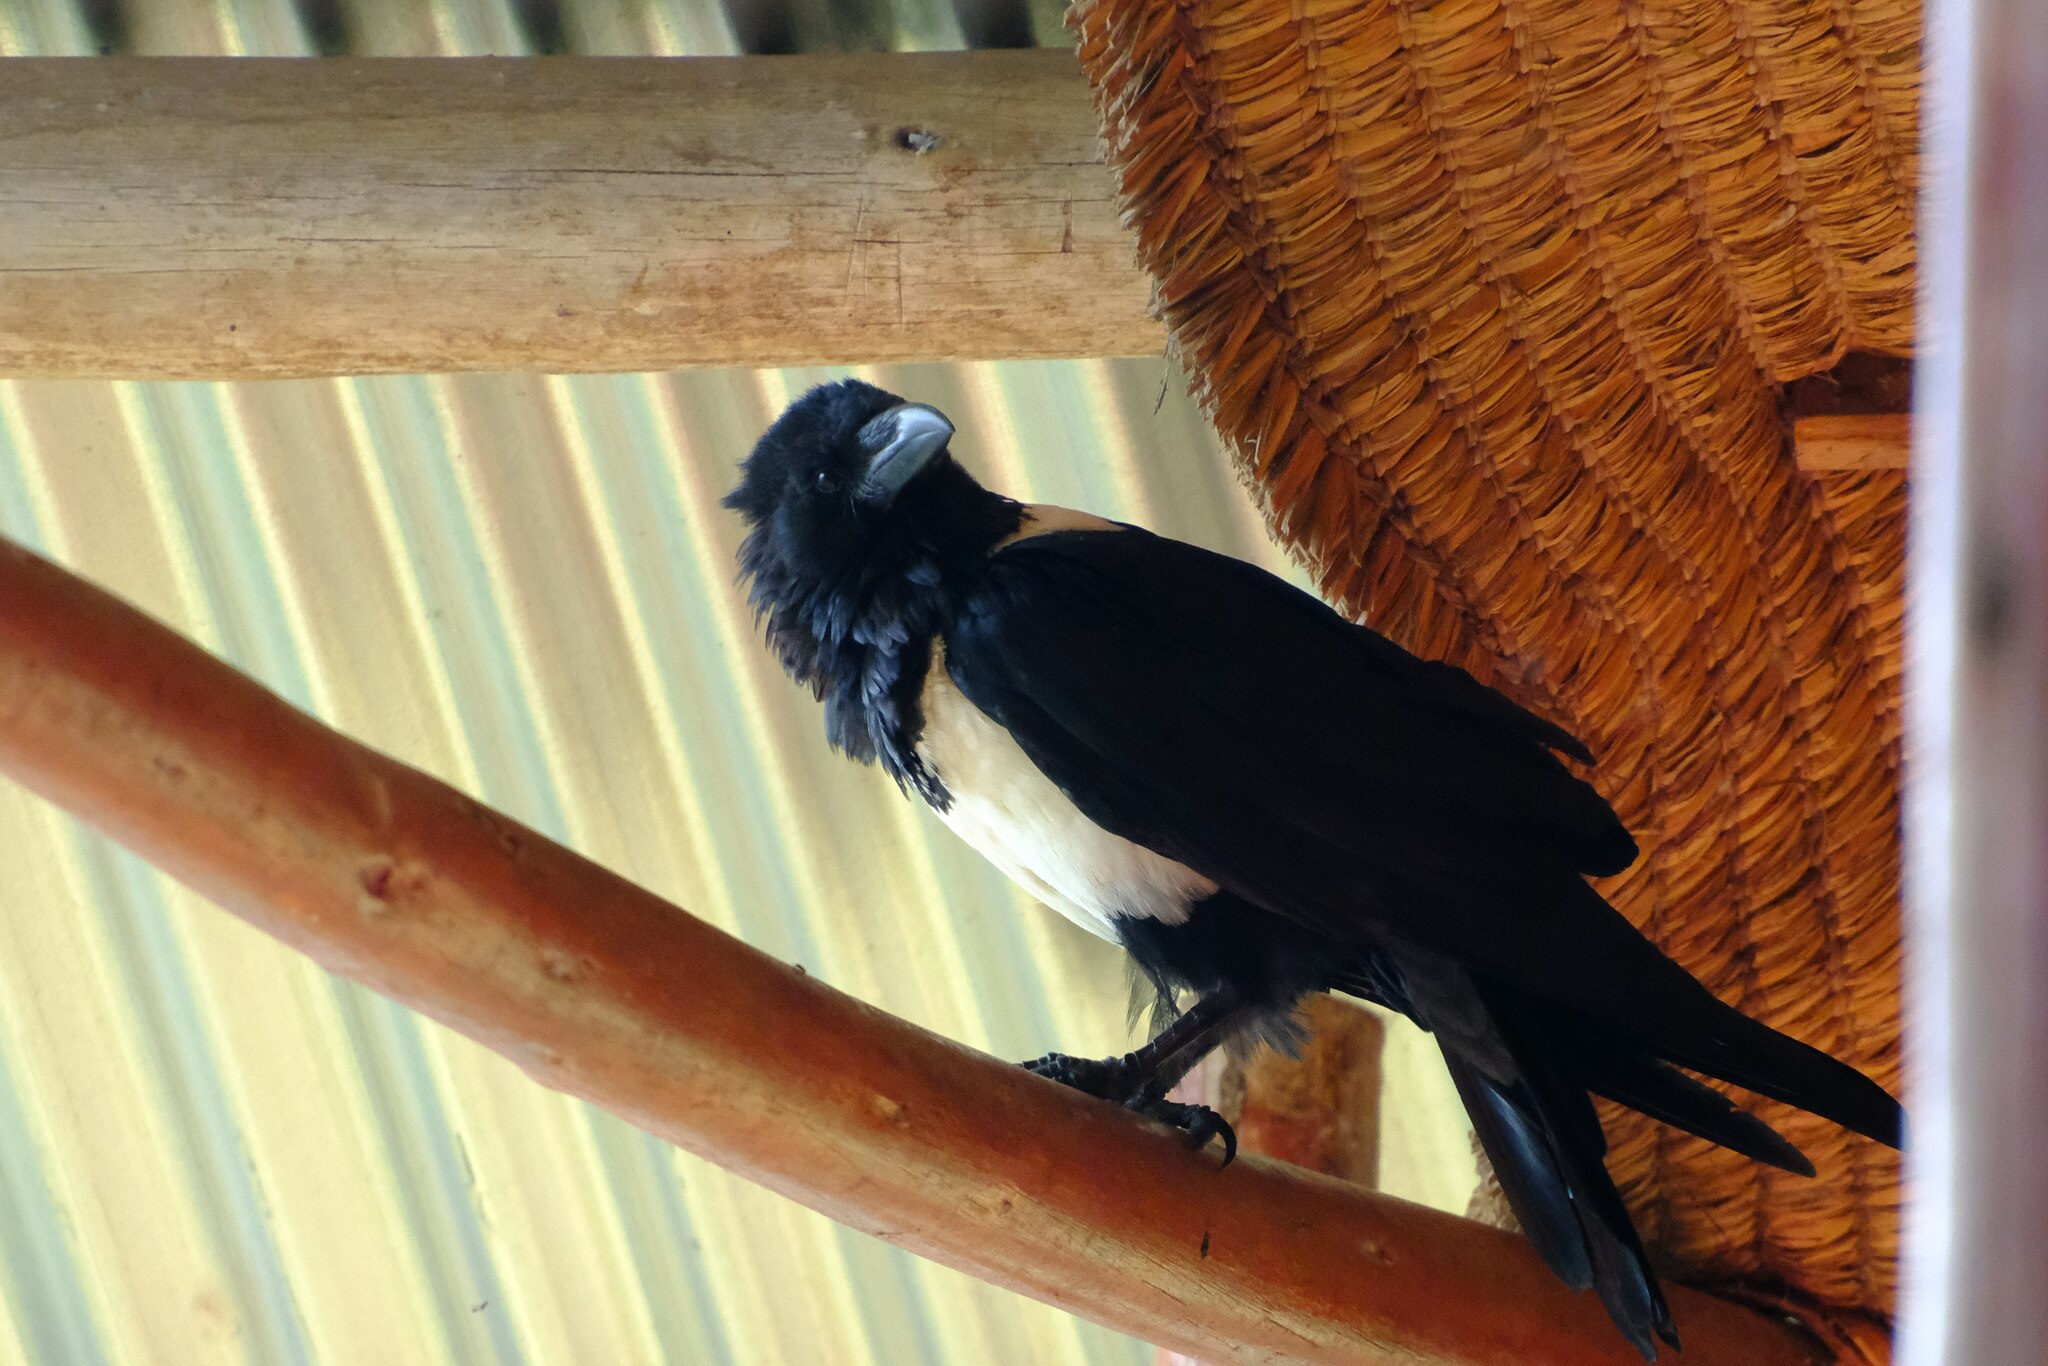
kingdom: Animalia
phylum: Chordata
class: Aves
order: Passeriformes
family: Corvidae
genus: Corvus
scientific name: Corvus albus
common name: Pied crow
